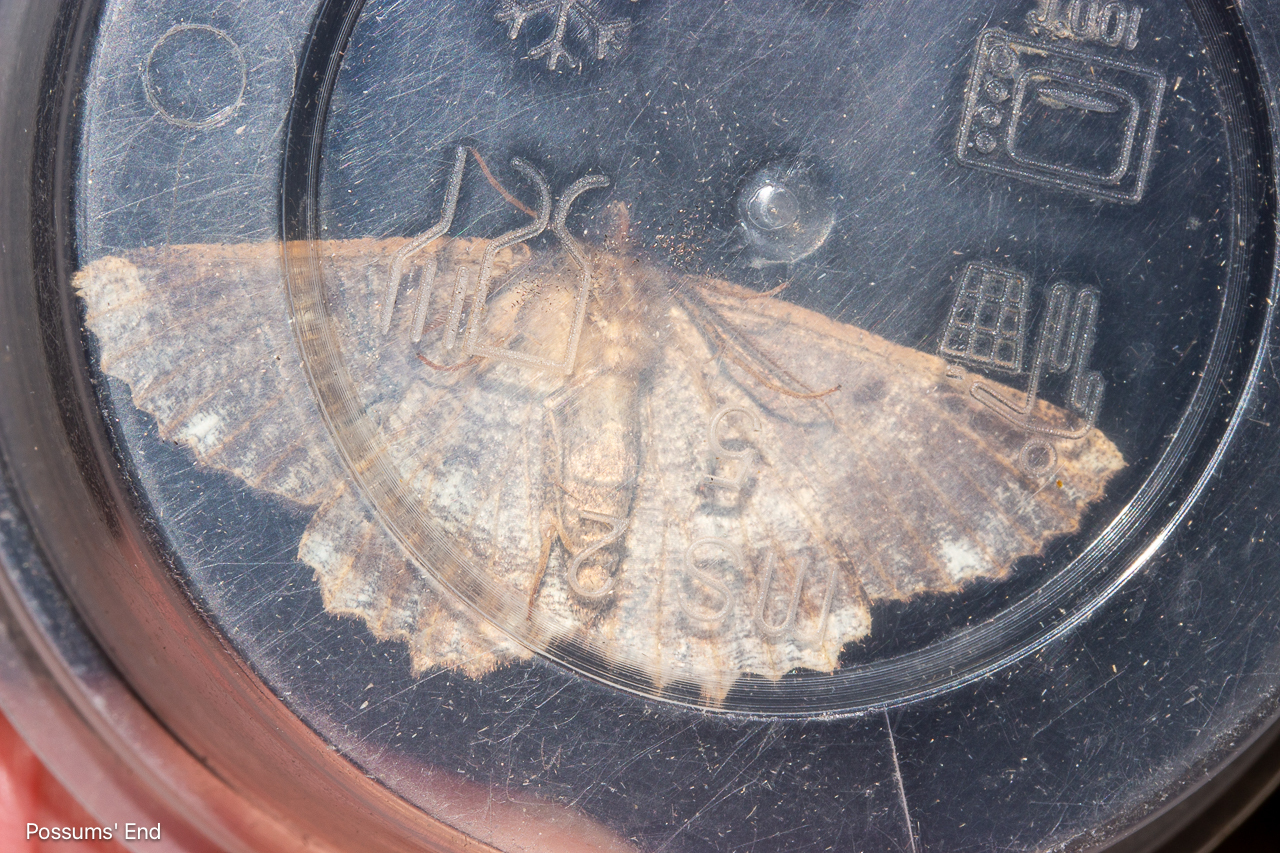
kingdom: Animalia
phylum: Arthropoda
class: Insecta
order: Lepidoptera
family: Geometridae
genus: Gellonia
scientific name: Gellonia dejectaria
